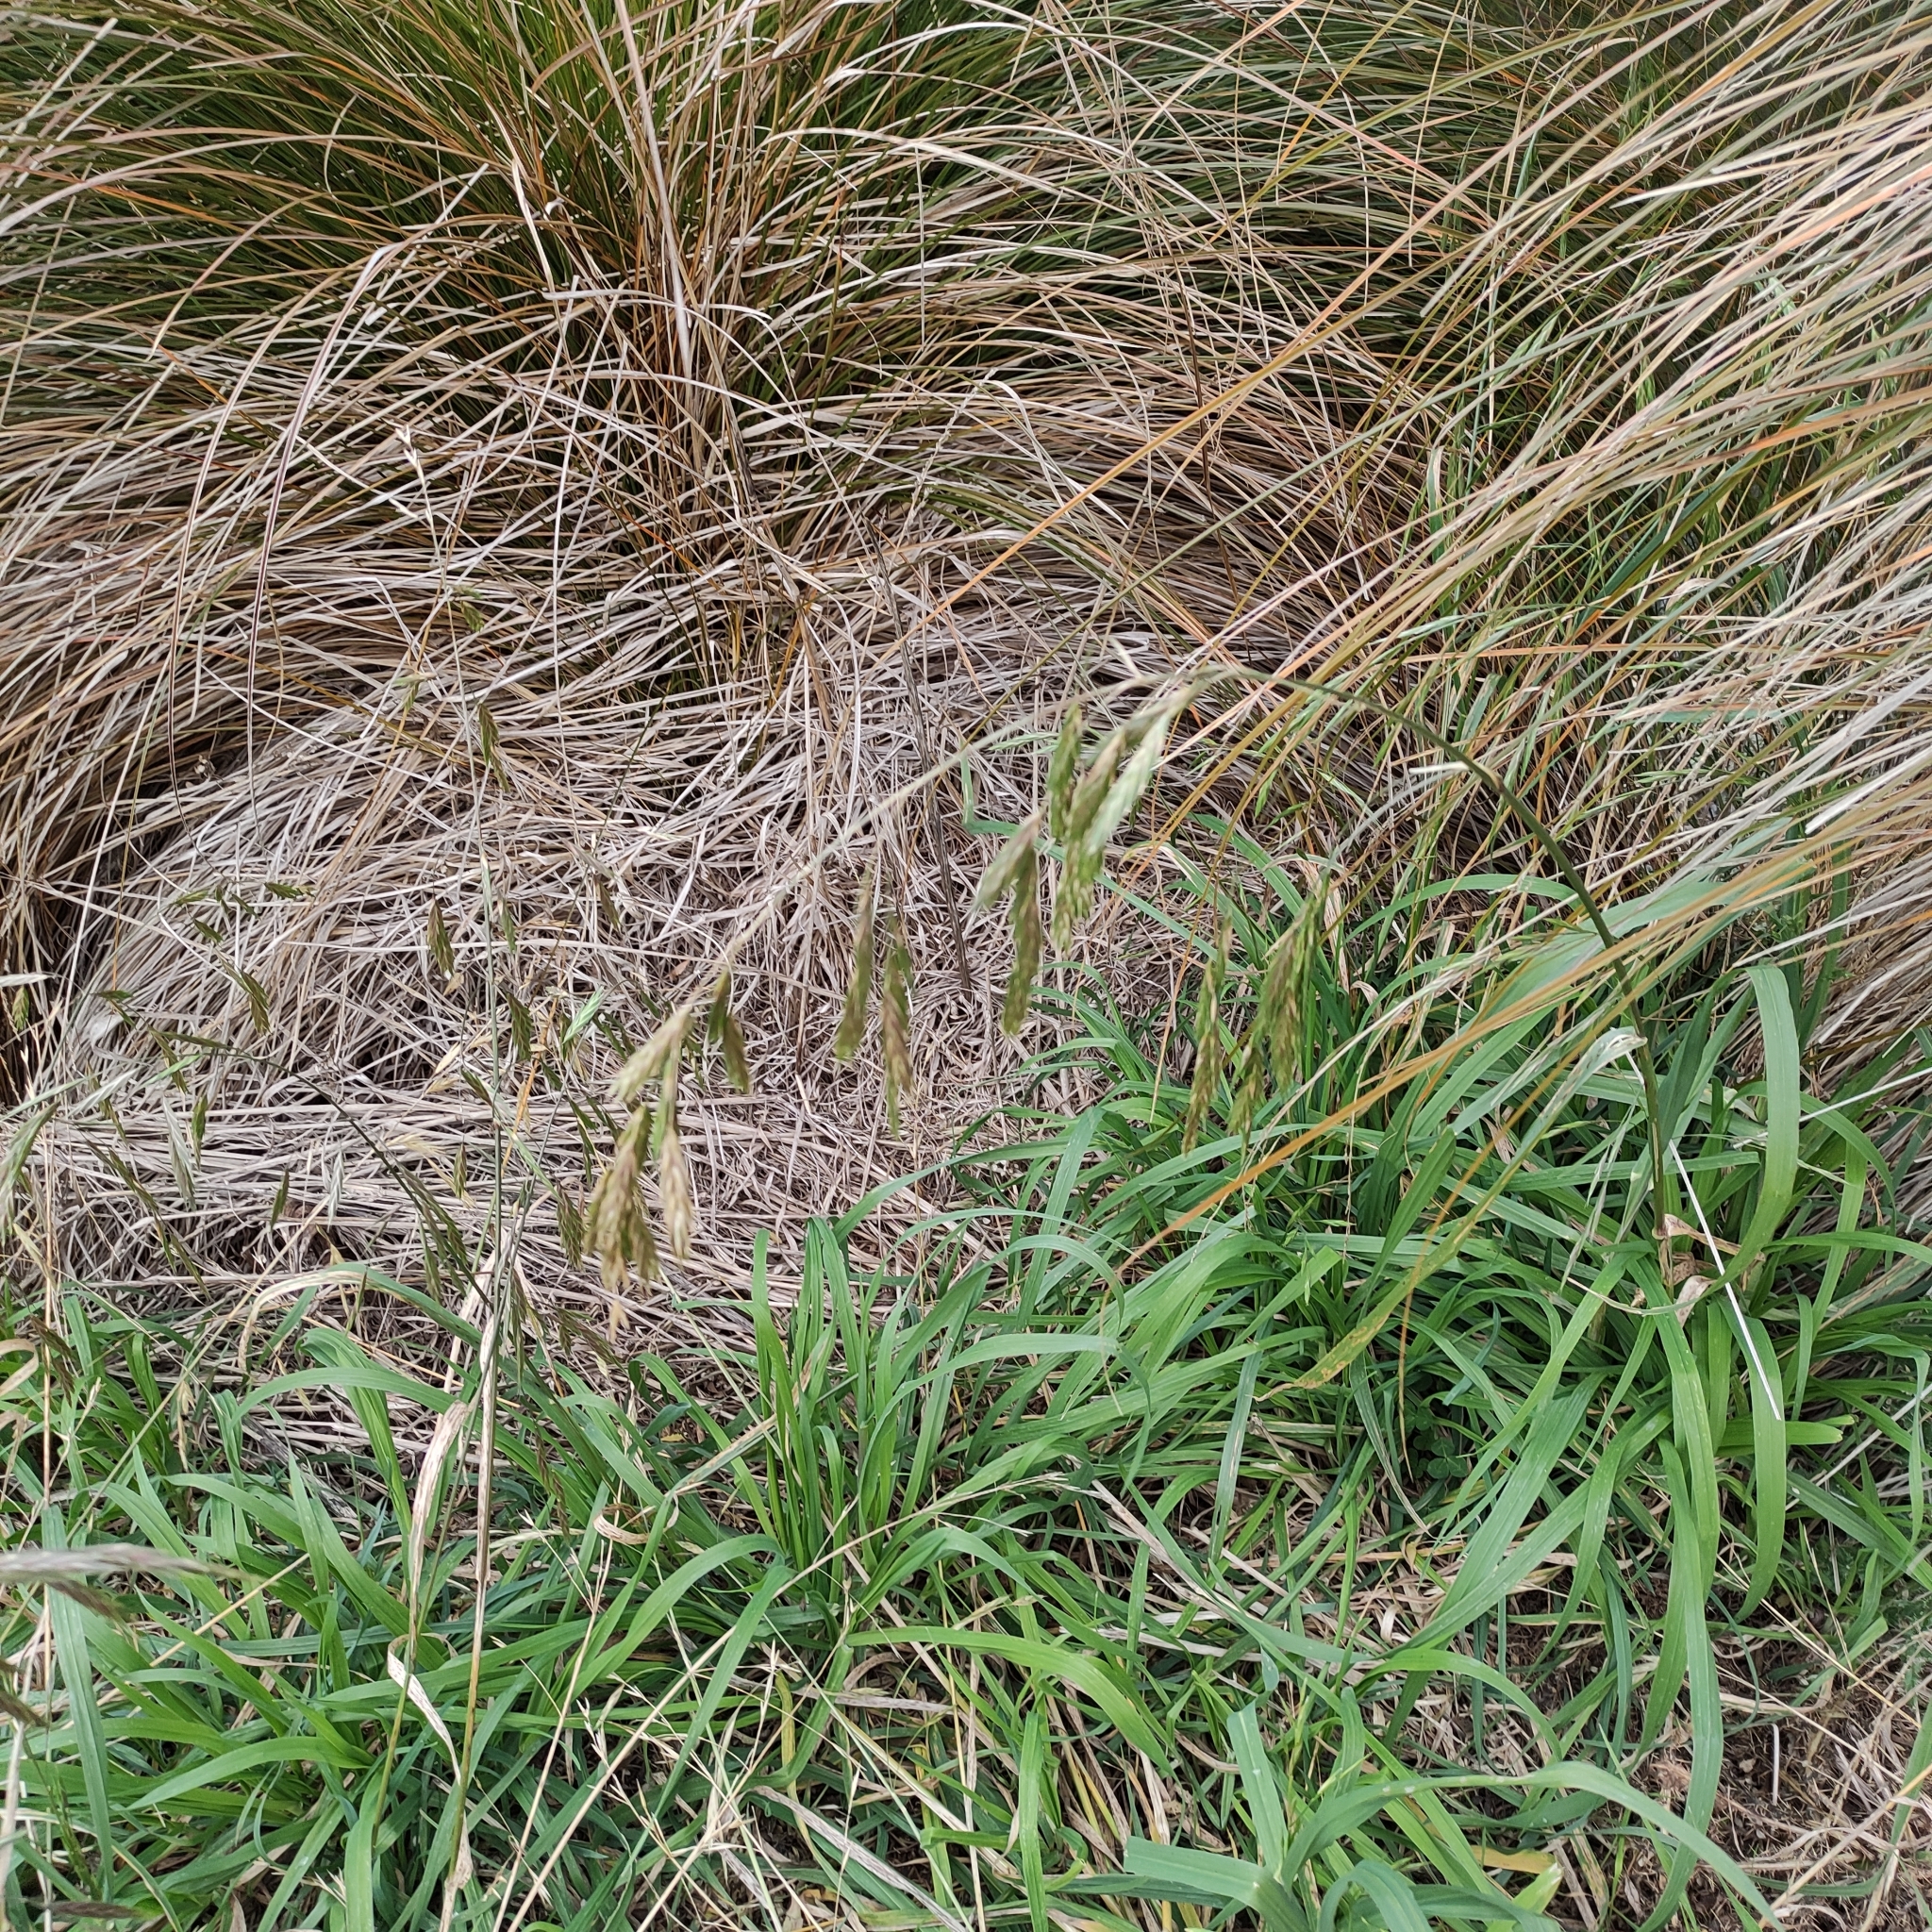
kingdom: Plantae
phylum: Tracheophyta
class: Liliopsida
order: Poales
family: Poaceae
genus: Bromus
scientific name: Bromus catharticus
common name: Rescuegrass
